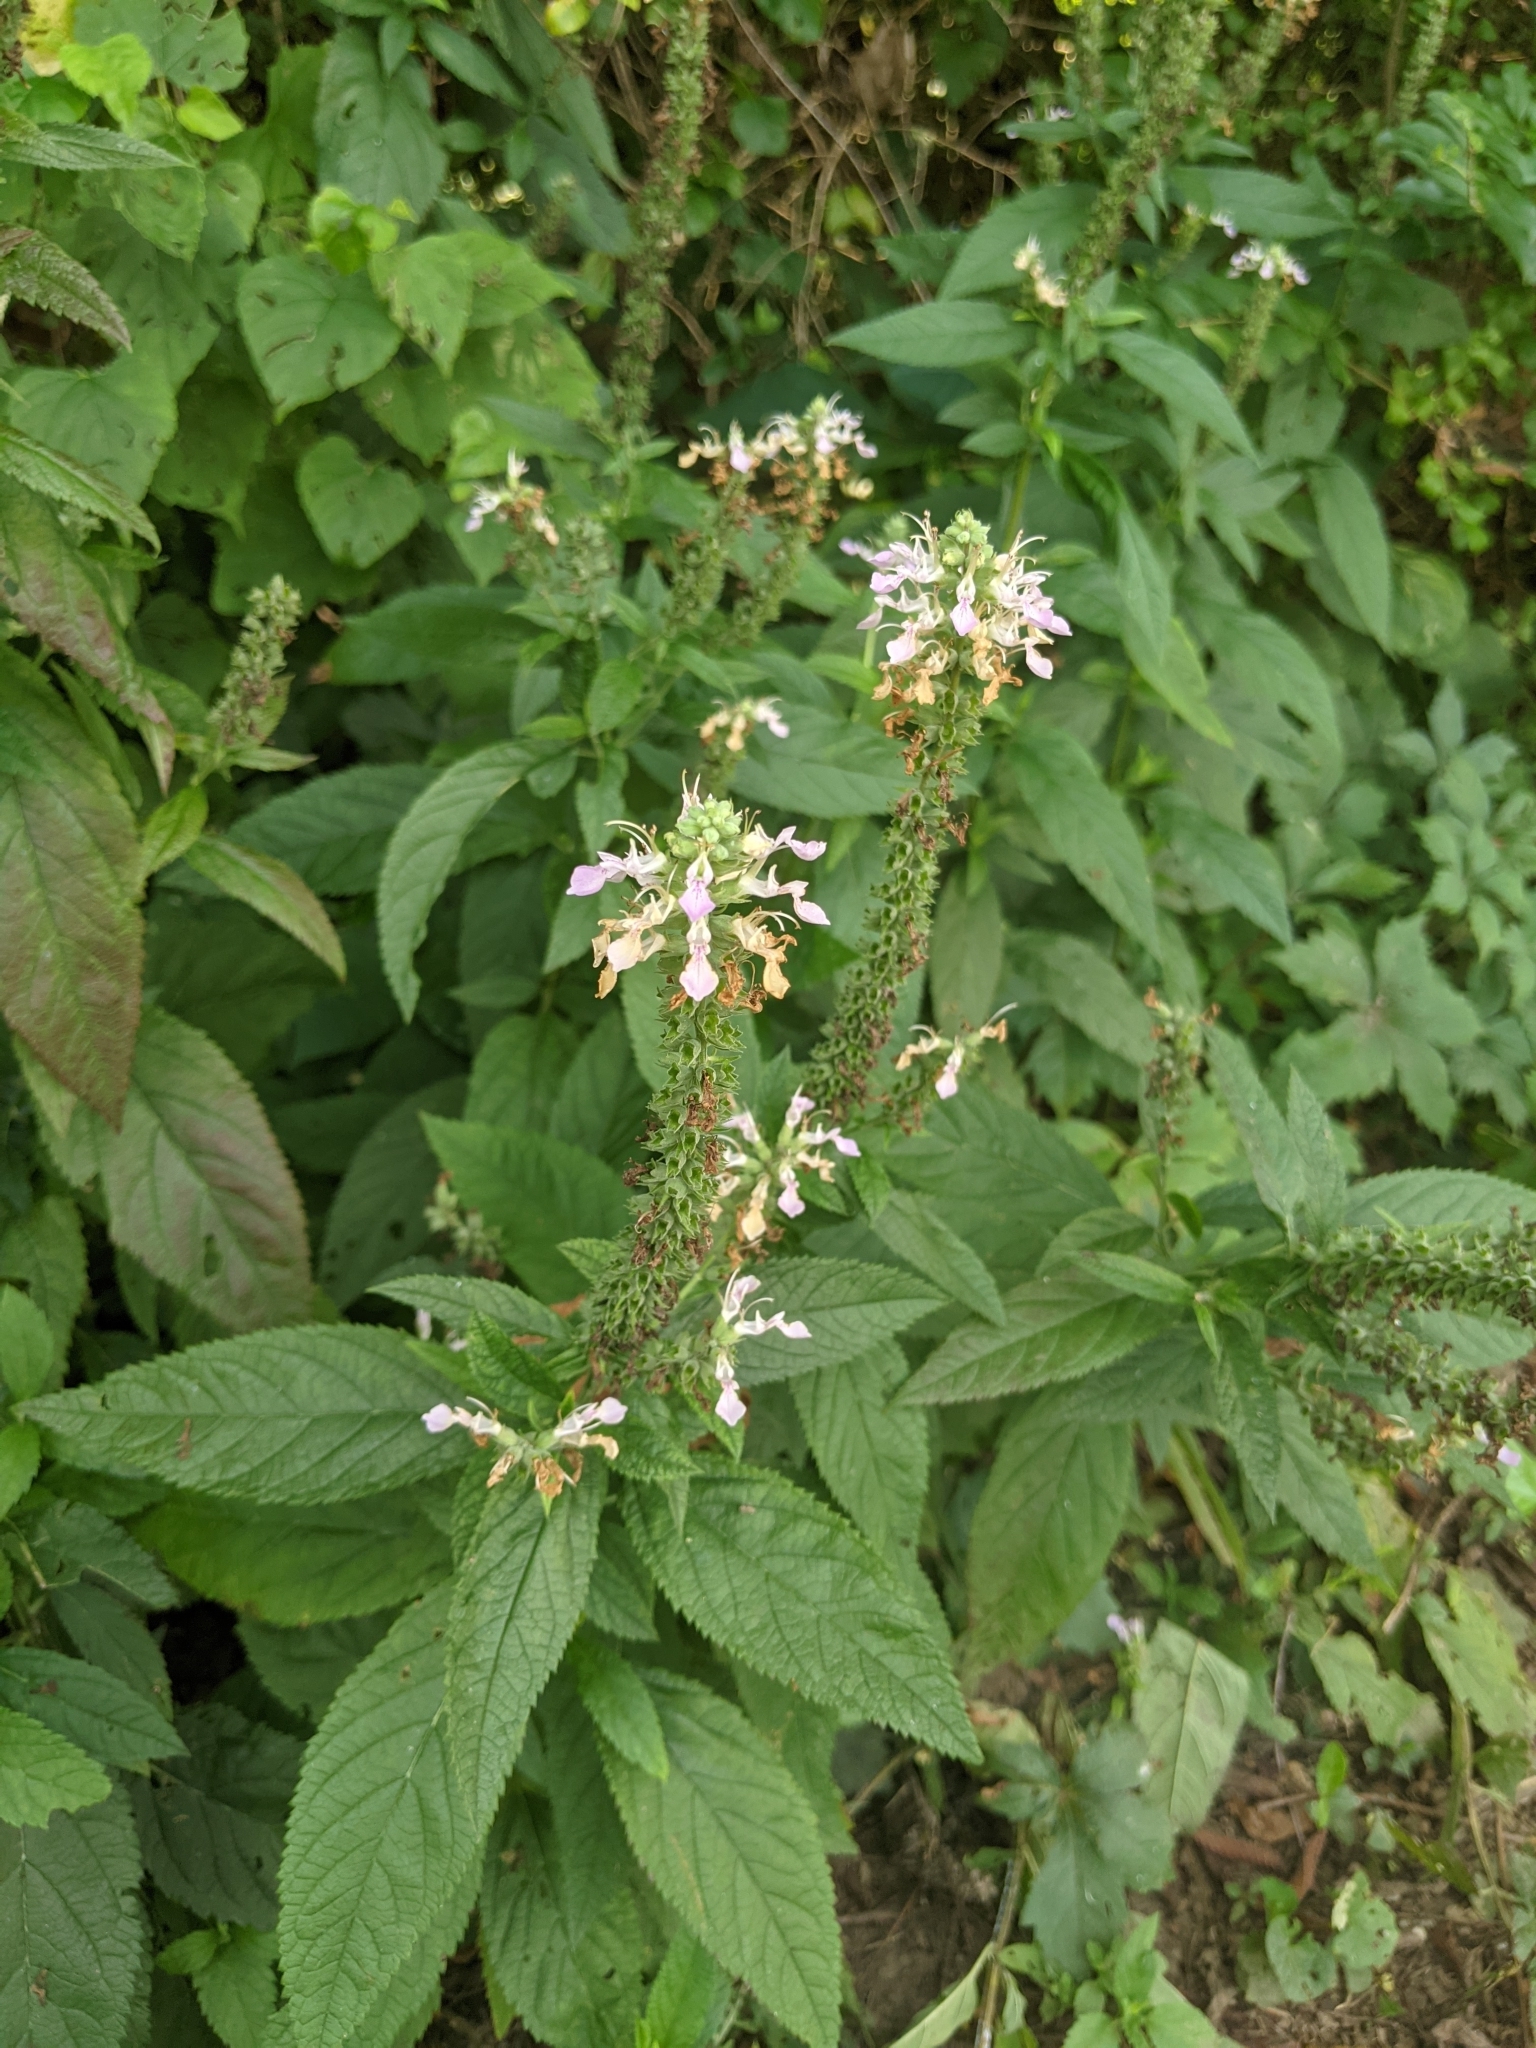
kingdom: Plantae
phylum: Tracheophyta
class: Magnoliopsida
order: Lamiales
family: Lamiaceae
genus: Teucrium
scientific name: Teucrium canadense
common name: American germander
